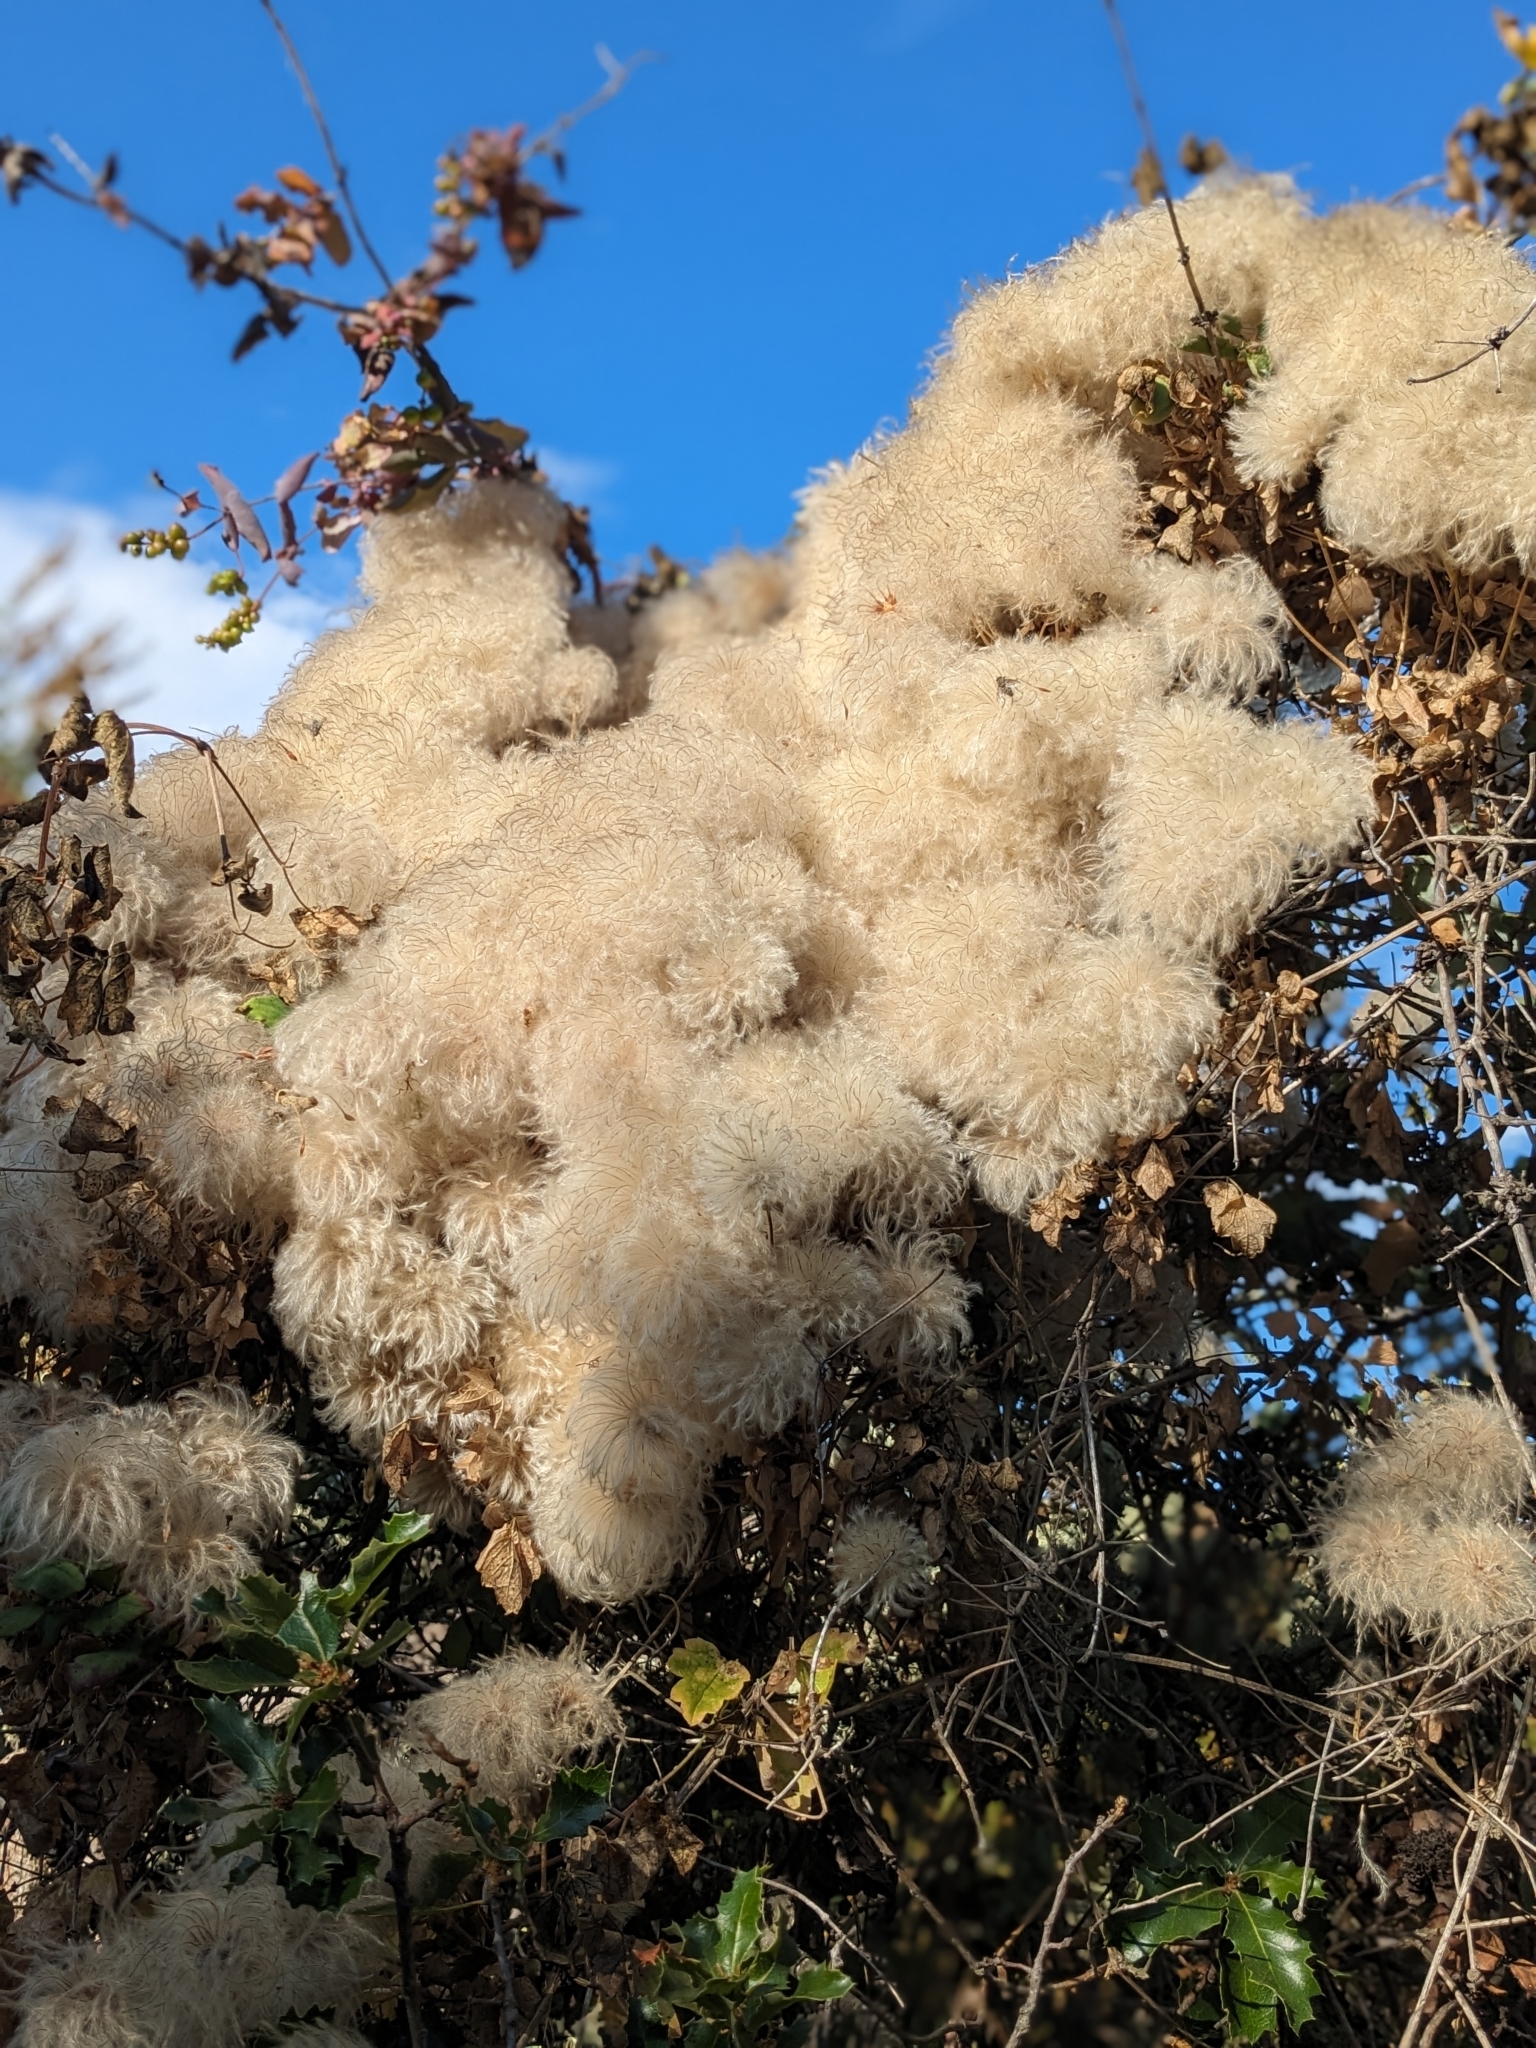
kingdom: Plantae
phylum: Tracheophyta
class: Magnoliopsida
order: Ranunculales
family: Ranunculaceae
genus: Clematis
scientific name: Clematis lasiantha
